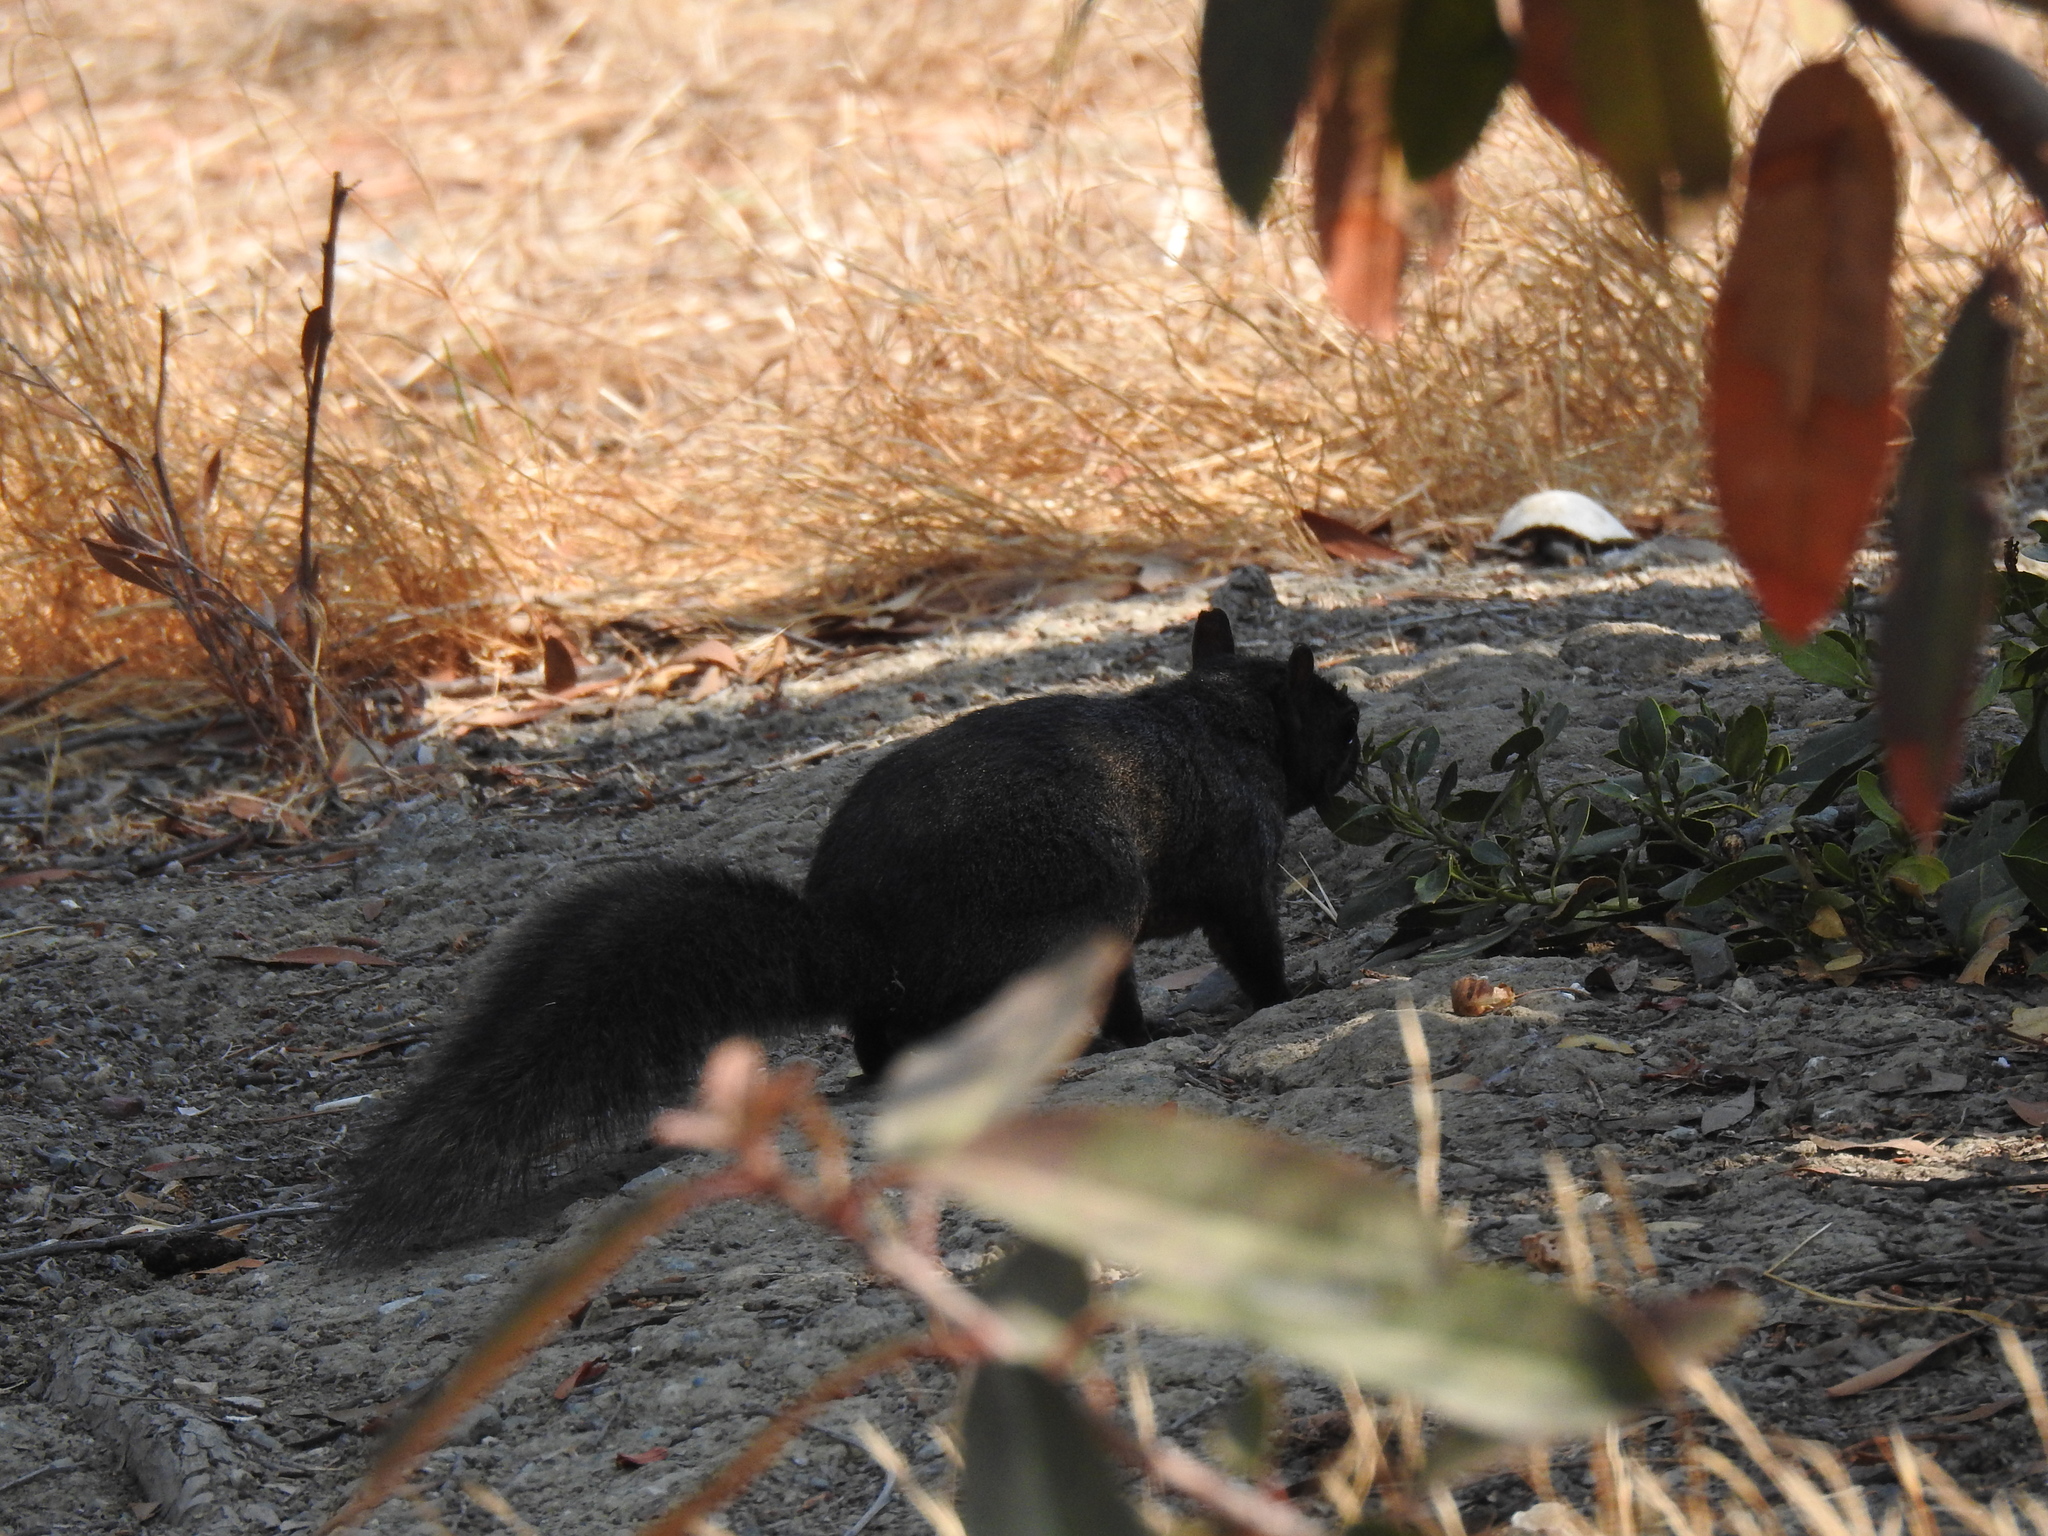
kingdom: Animalia
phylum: Chordata
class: Mammalia
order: Rodentia
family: Sciuridae
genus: Sciurus
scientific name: Sciurus carolinensis
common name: Eastern gray squirrel
